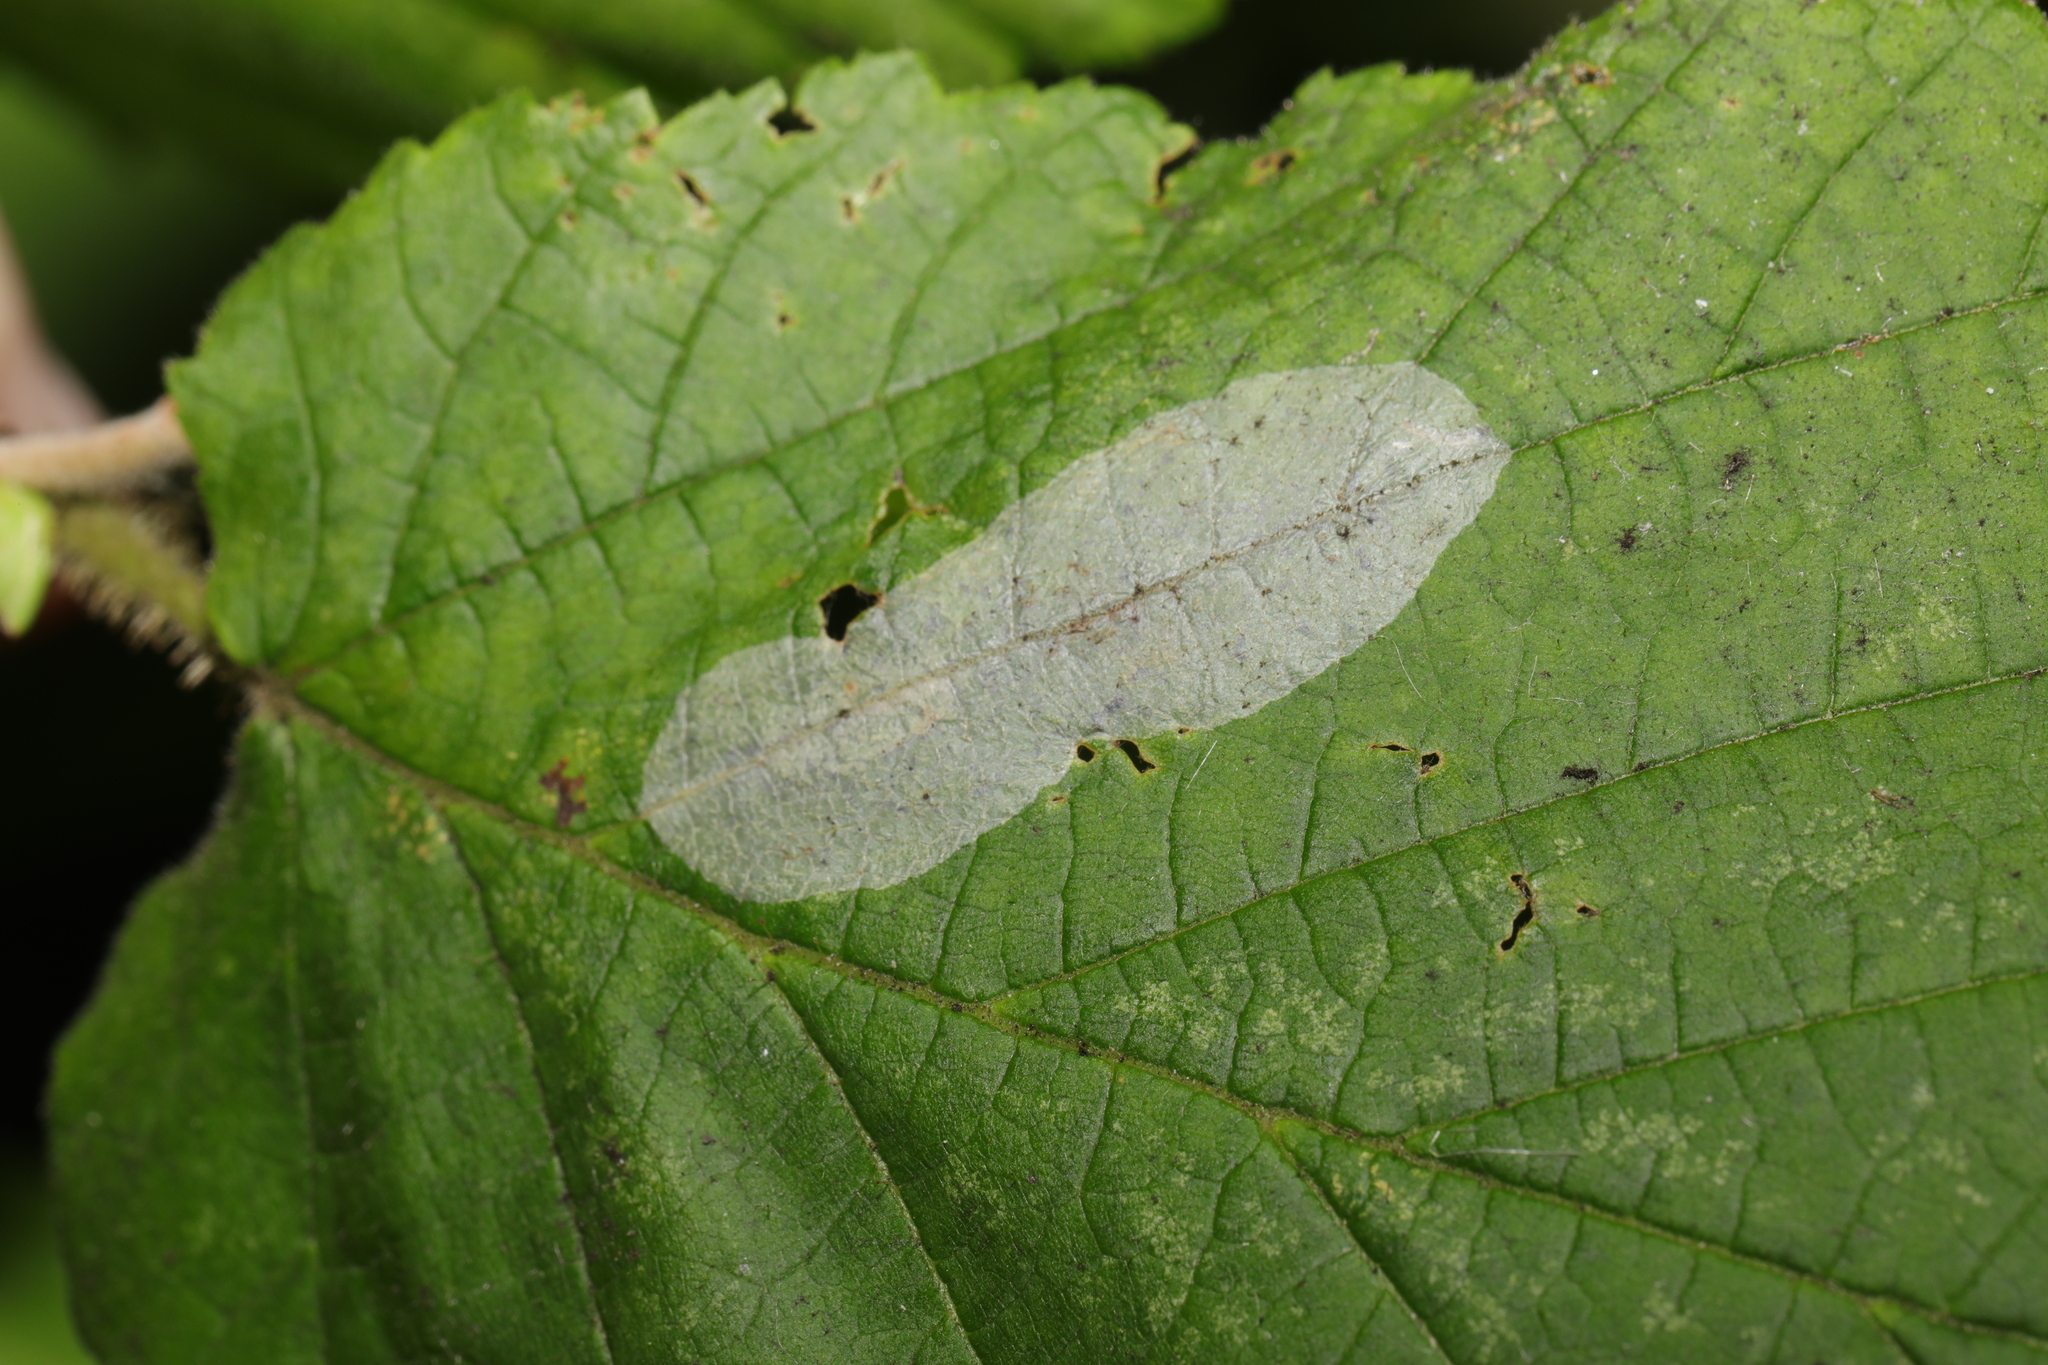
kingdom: Animalia
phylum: Arthropoda
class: Insecta
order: Lepidoptera
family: Gracillariidae
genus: Phyllonorycter
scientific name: Phyllonorycter coryli
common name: Nut-leaf blister moth
